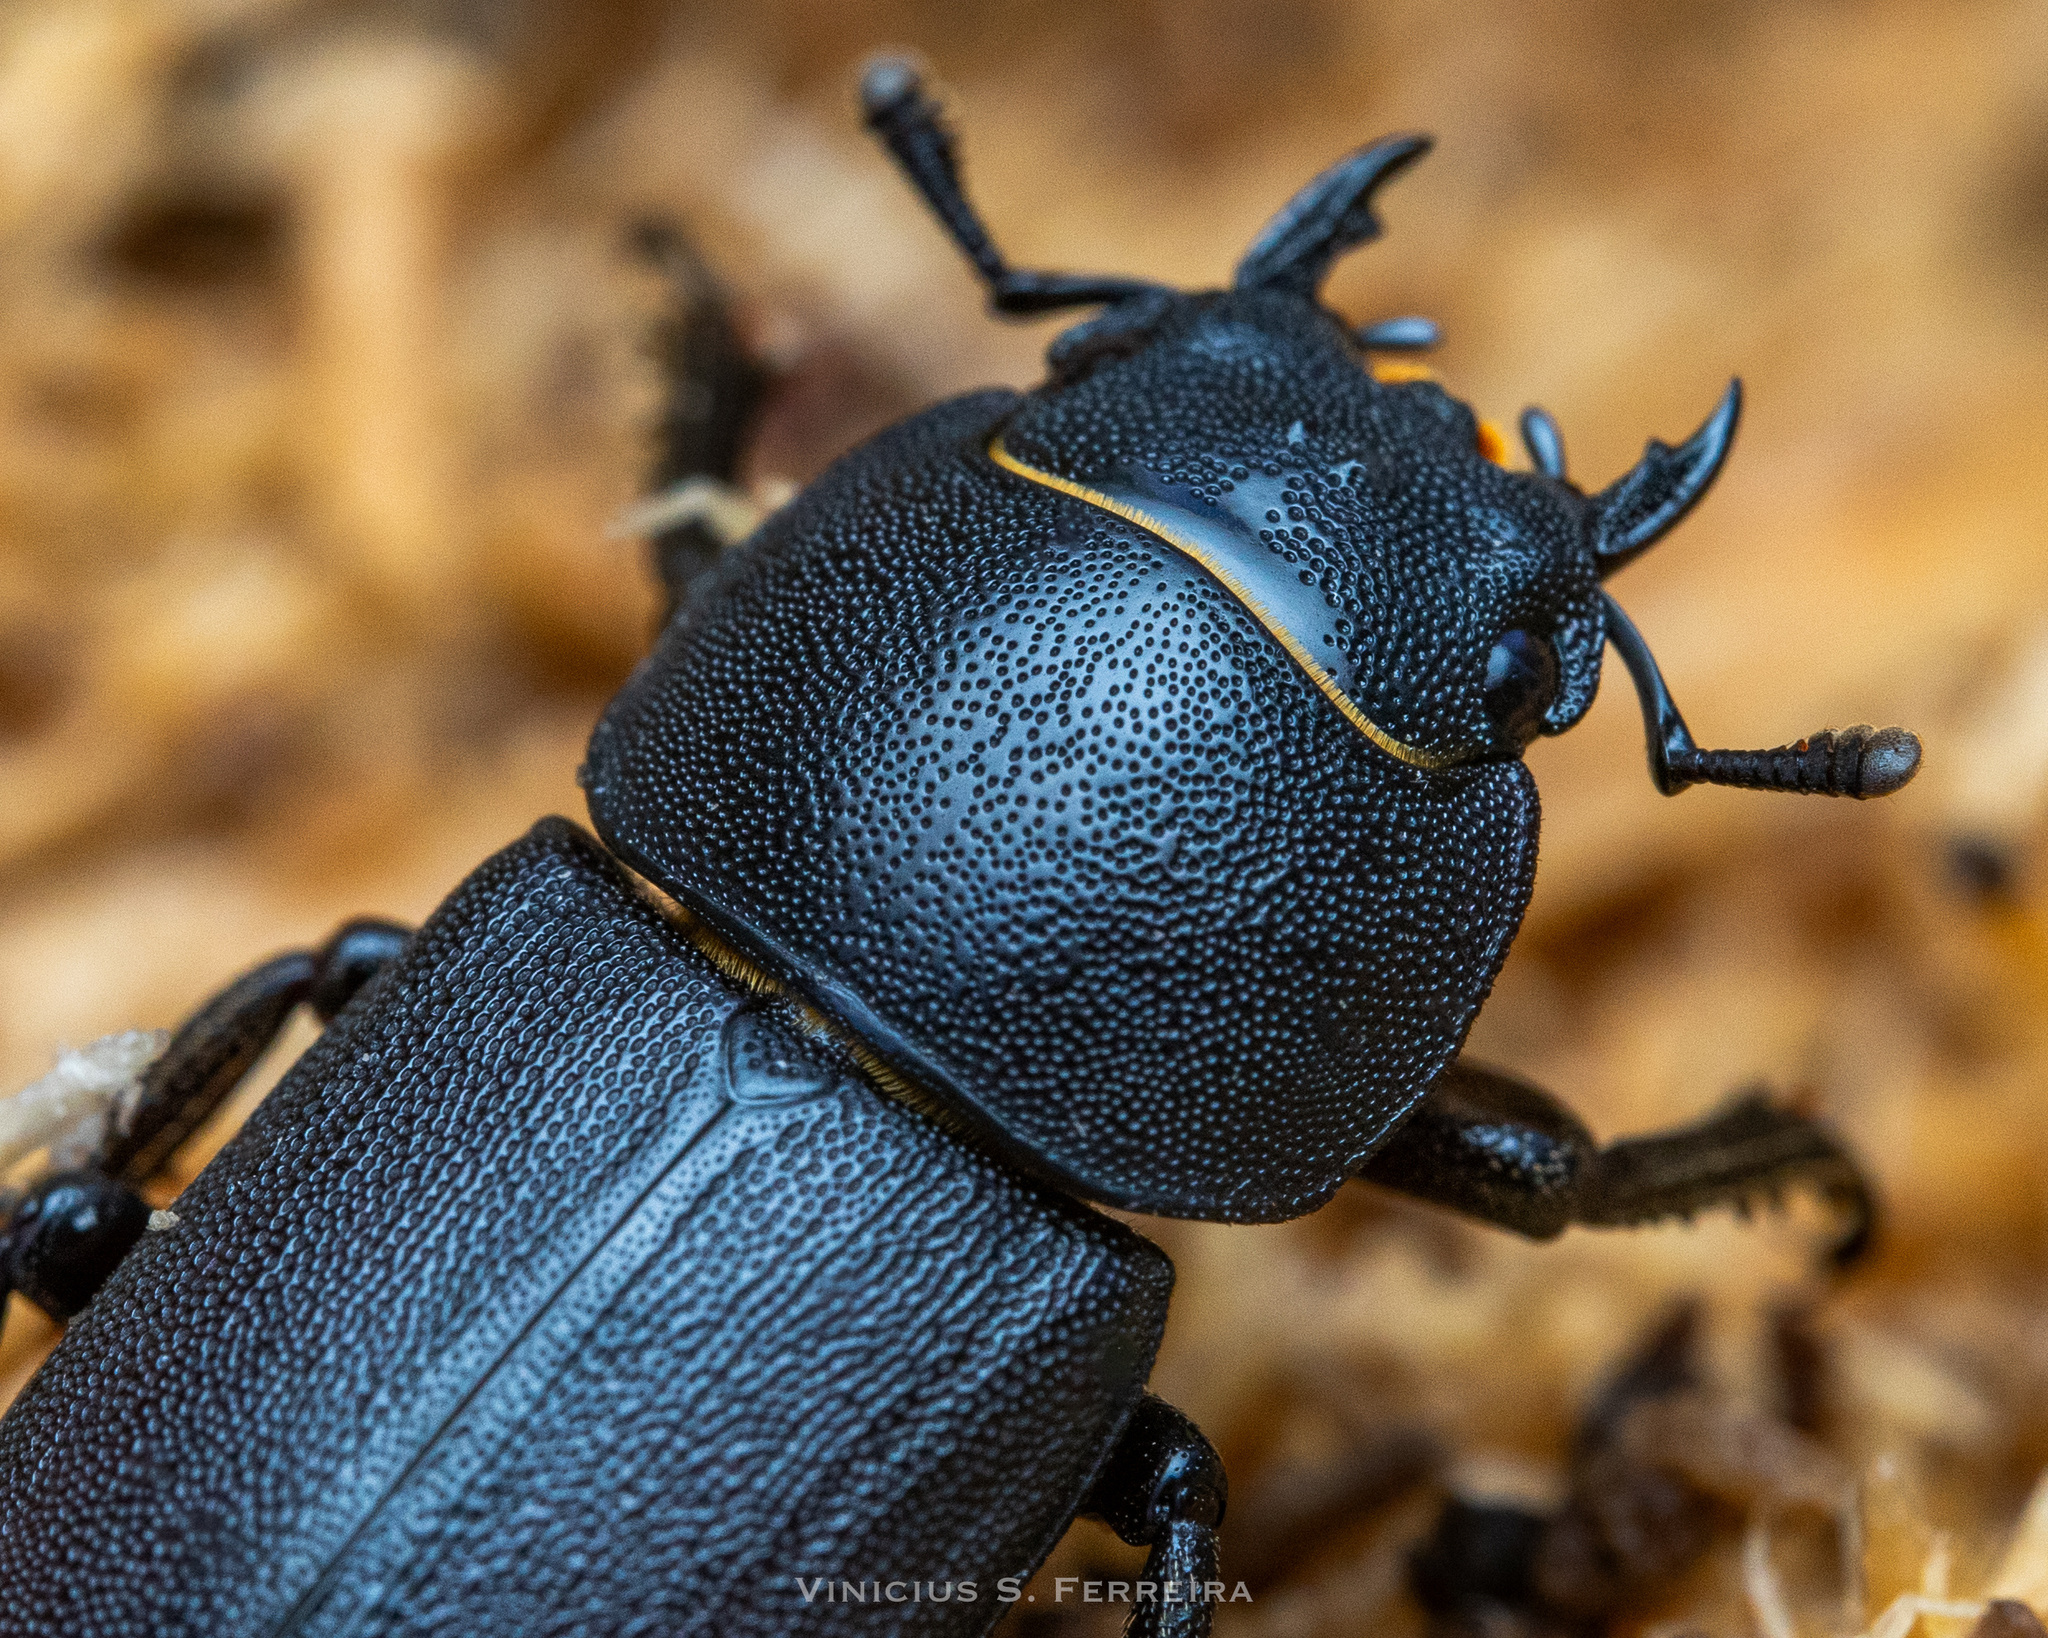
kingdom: Animalia
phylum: Arthropoda
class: Insecta
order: Coleoptera
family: Lucanidae
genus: Dorcus
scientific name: Dorcus parallelipipedus
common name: Lesser stag beetle
